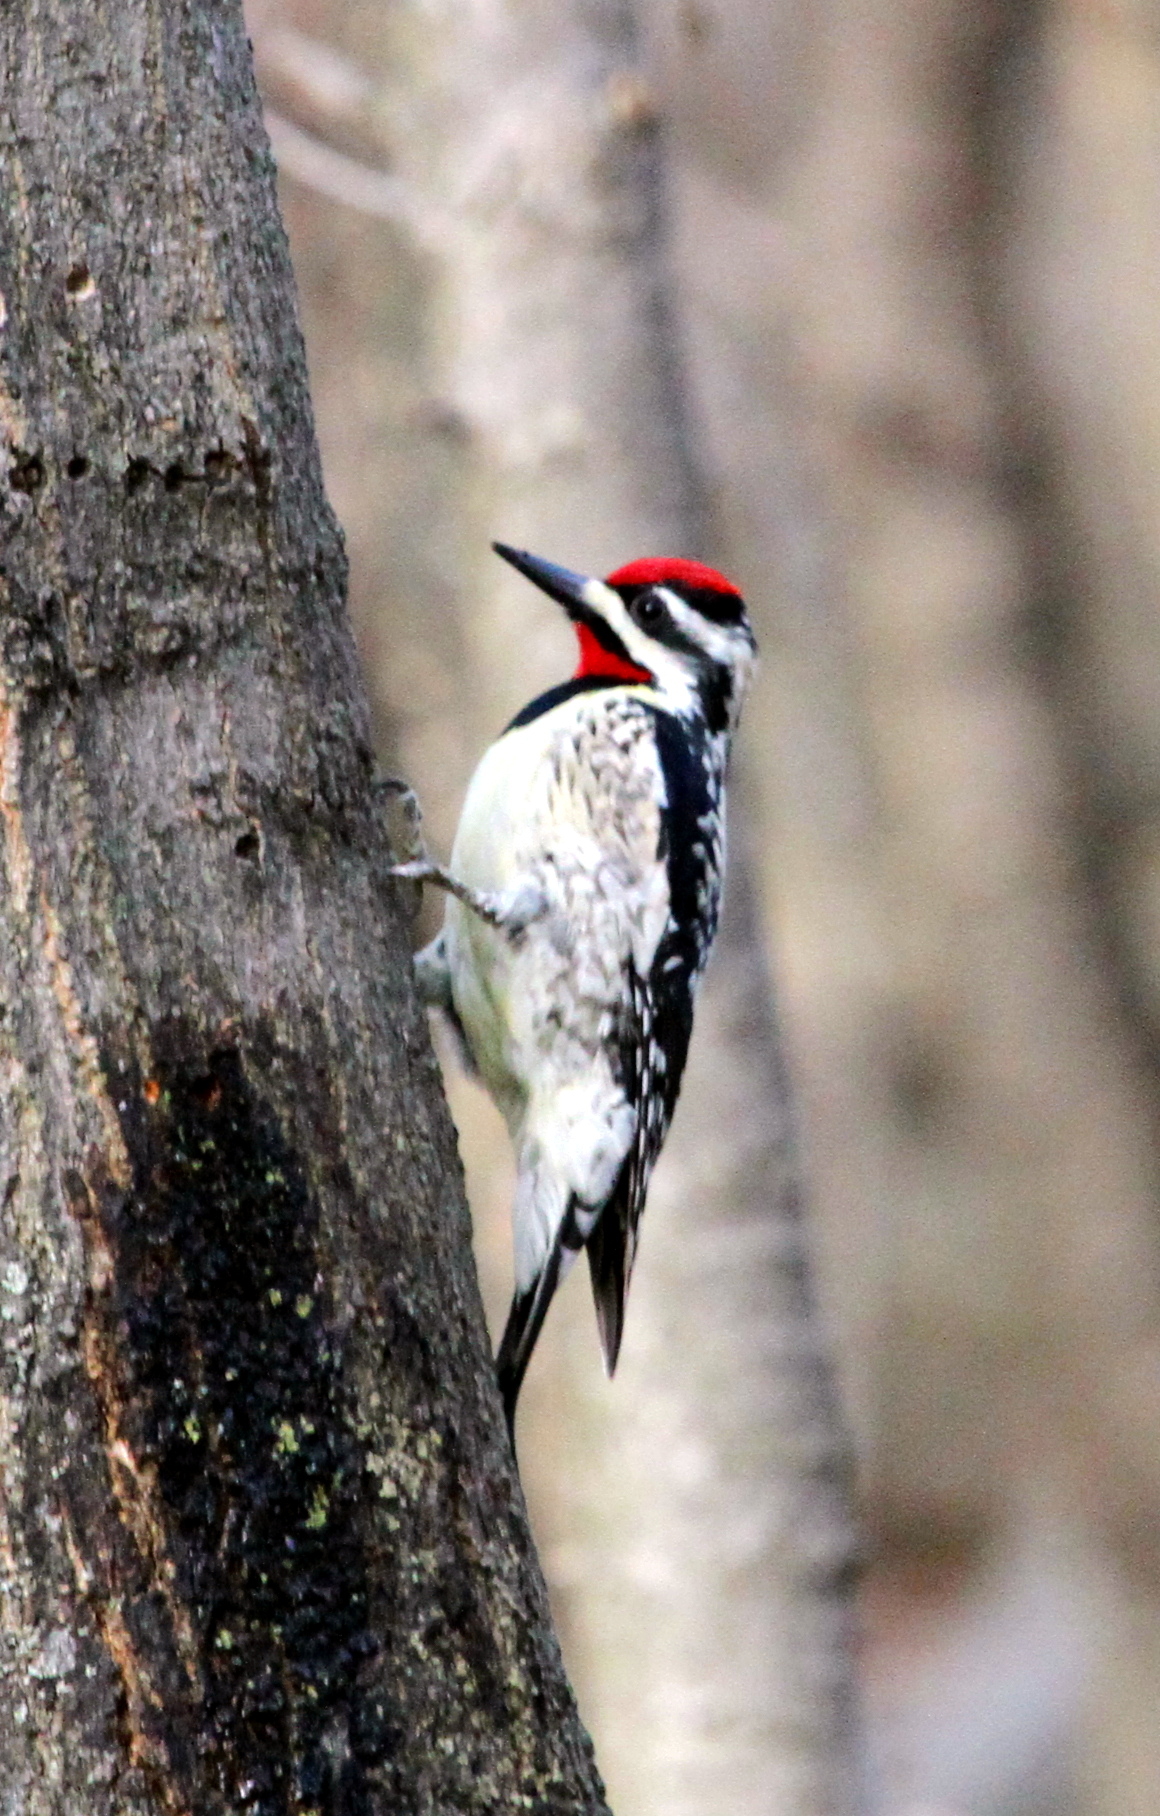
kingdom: Animalia
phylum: Chordata
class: Aves
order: Piciformes
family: Picidae
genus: Sphyrapicus
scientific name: Sphyrapicus varius
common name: Yellow-bellied sapsucker
